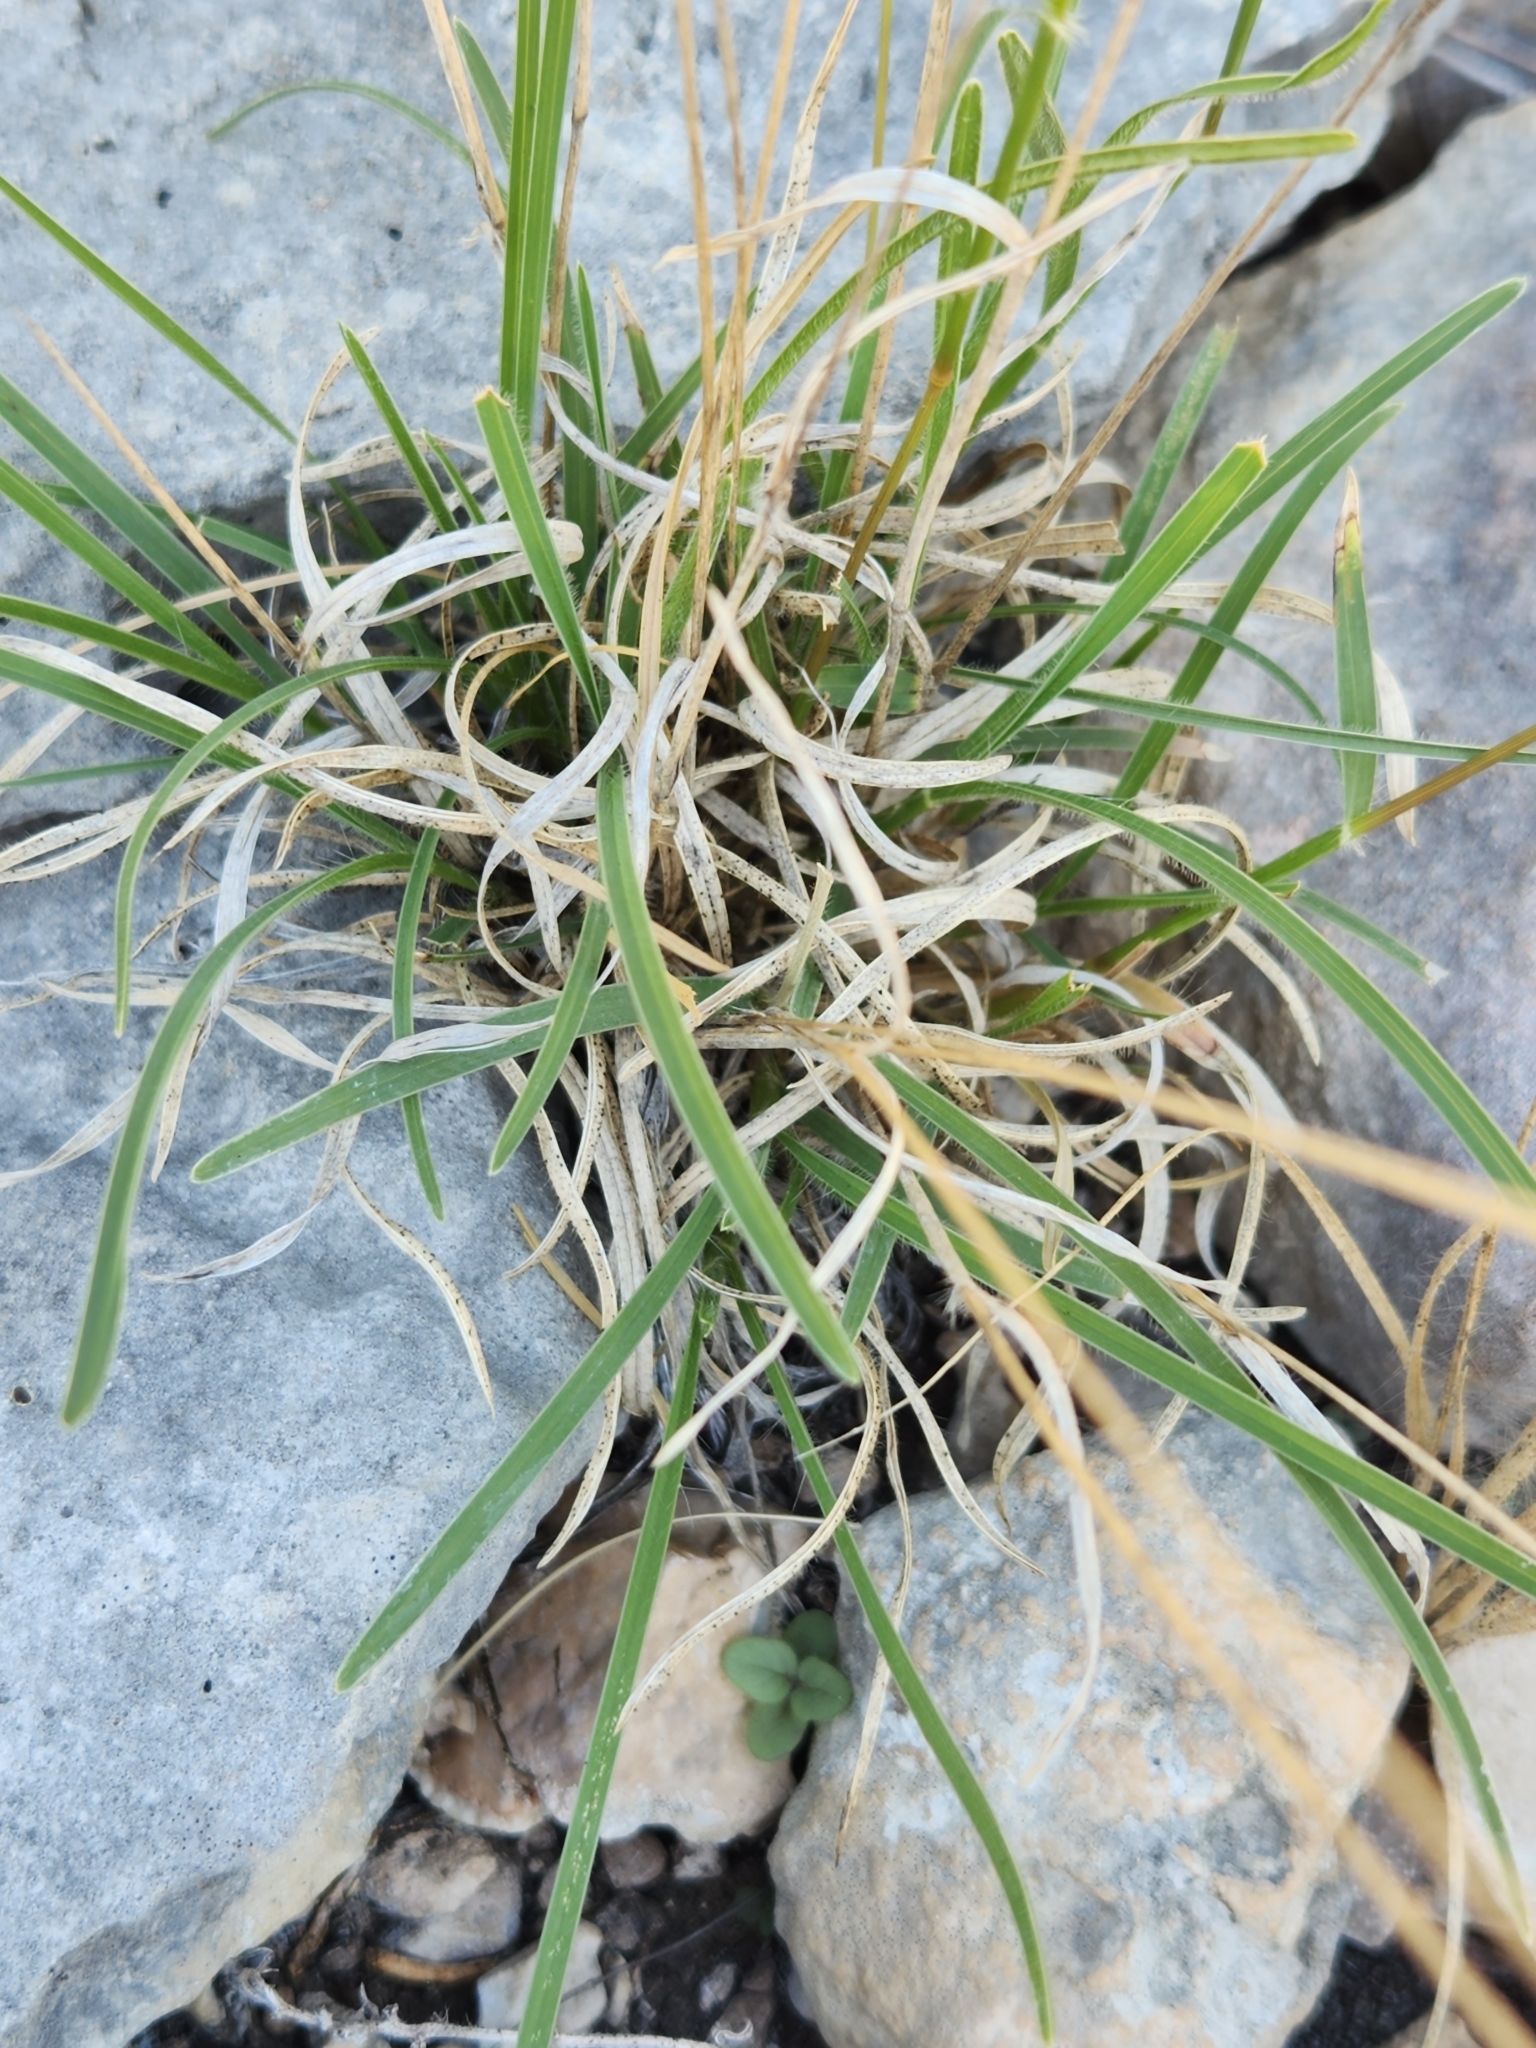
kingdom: Plantae
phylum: Tracheophyta
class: Liliopsida
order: Poales
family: Poaceae
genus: Erioneuron
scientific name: Erioneuron pilosum
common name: Hairy woolly grass
